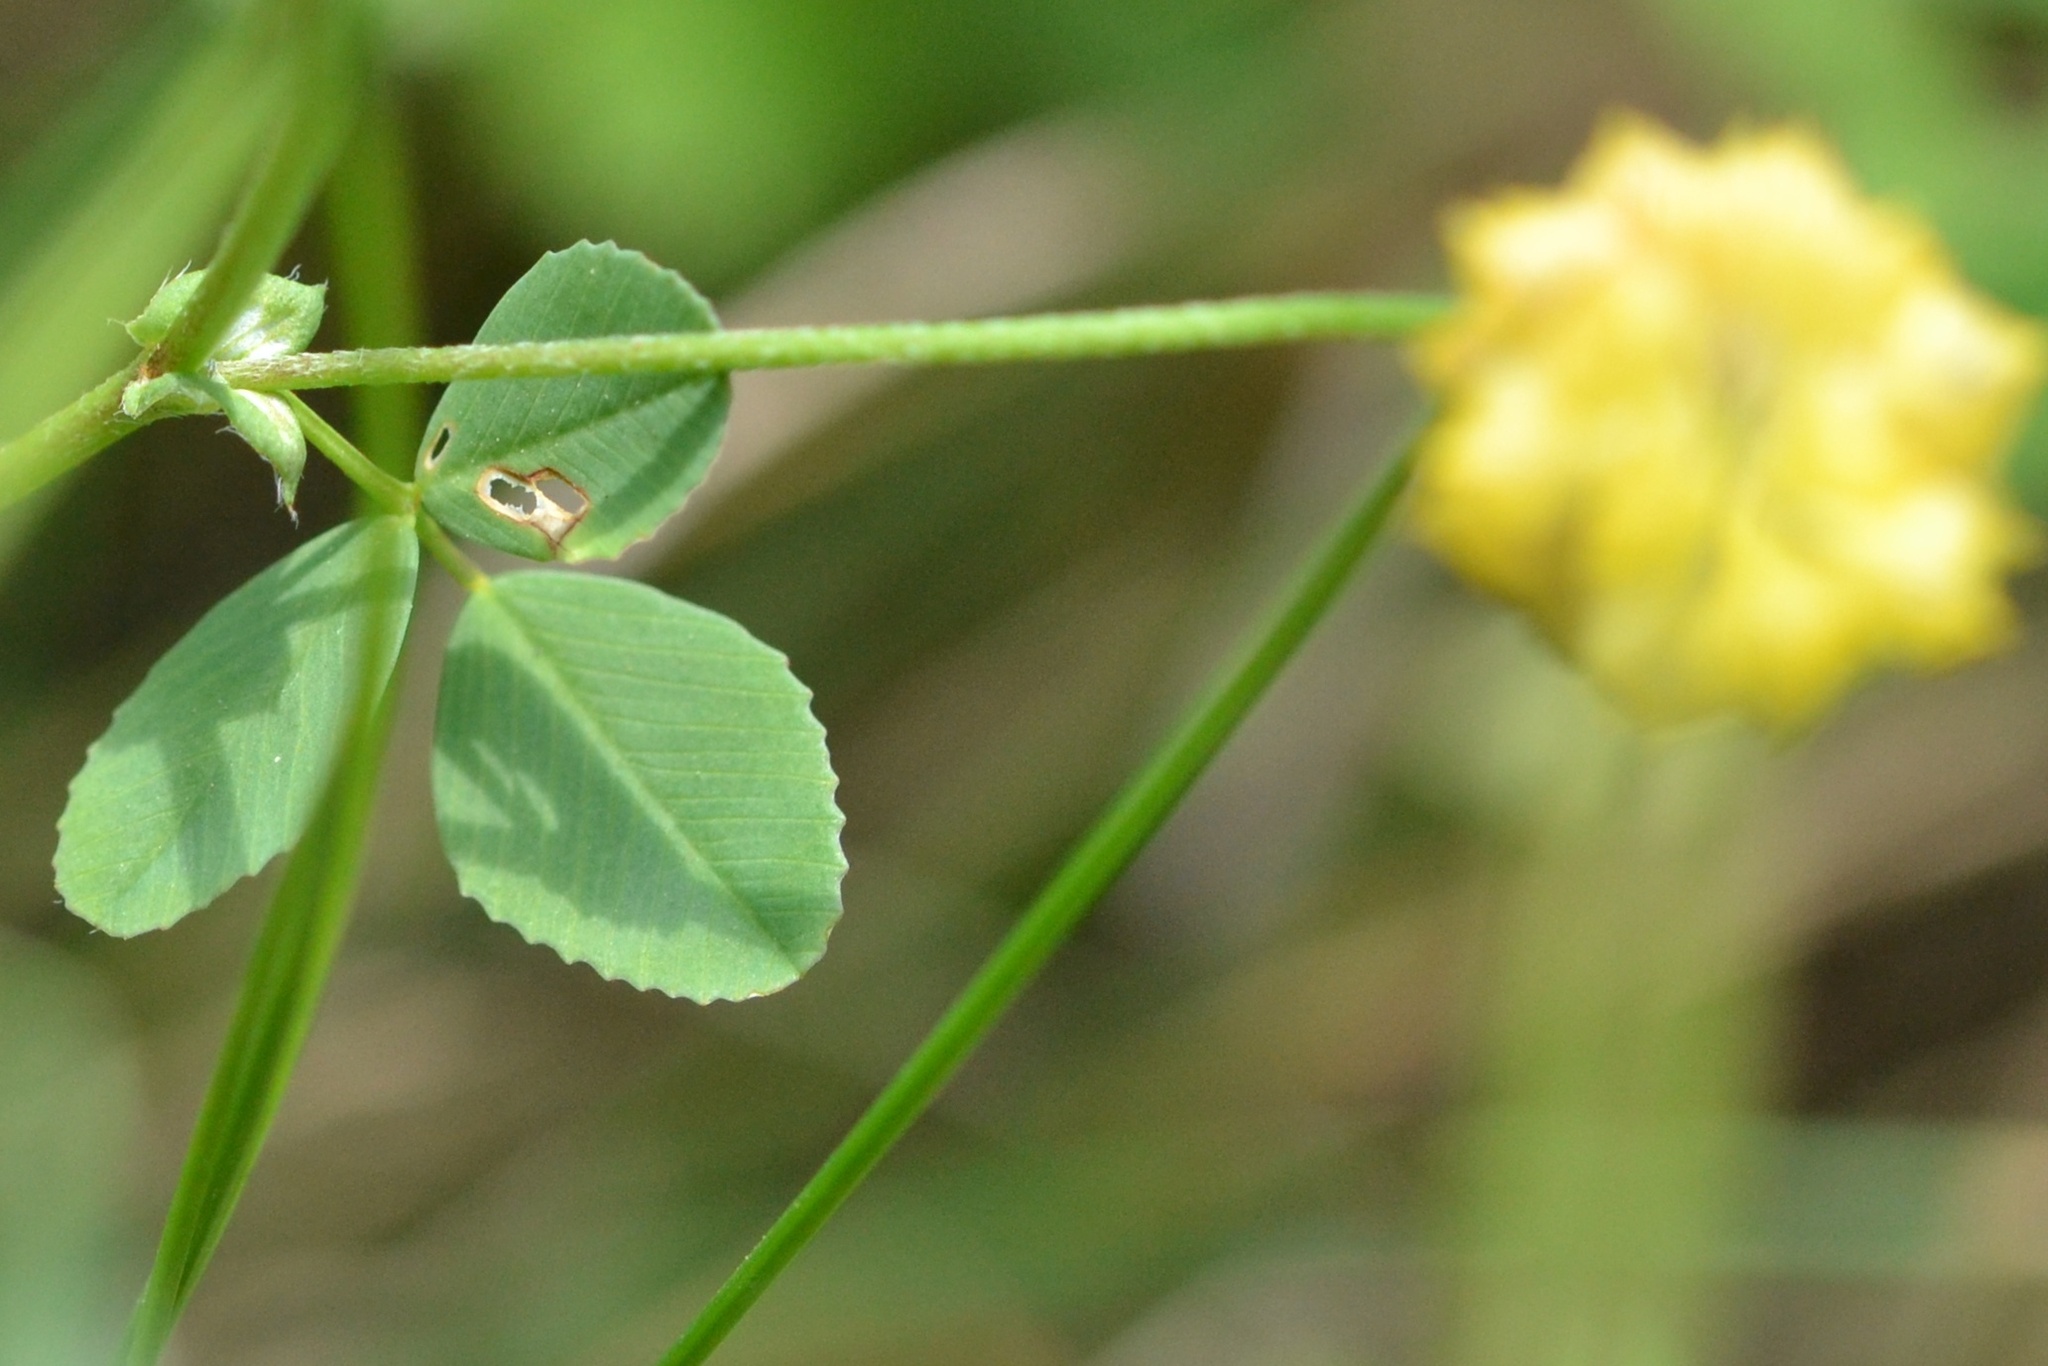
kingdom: Plantae
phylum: Tracheophyta
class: Magnoliopsida
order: Fabales
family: Fabaceae
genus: Trifolium
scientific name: Trifolium campestre
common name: Field clover
